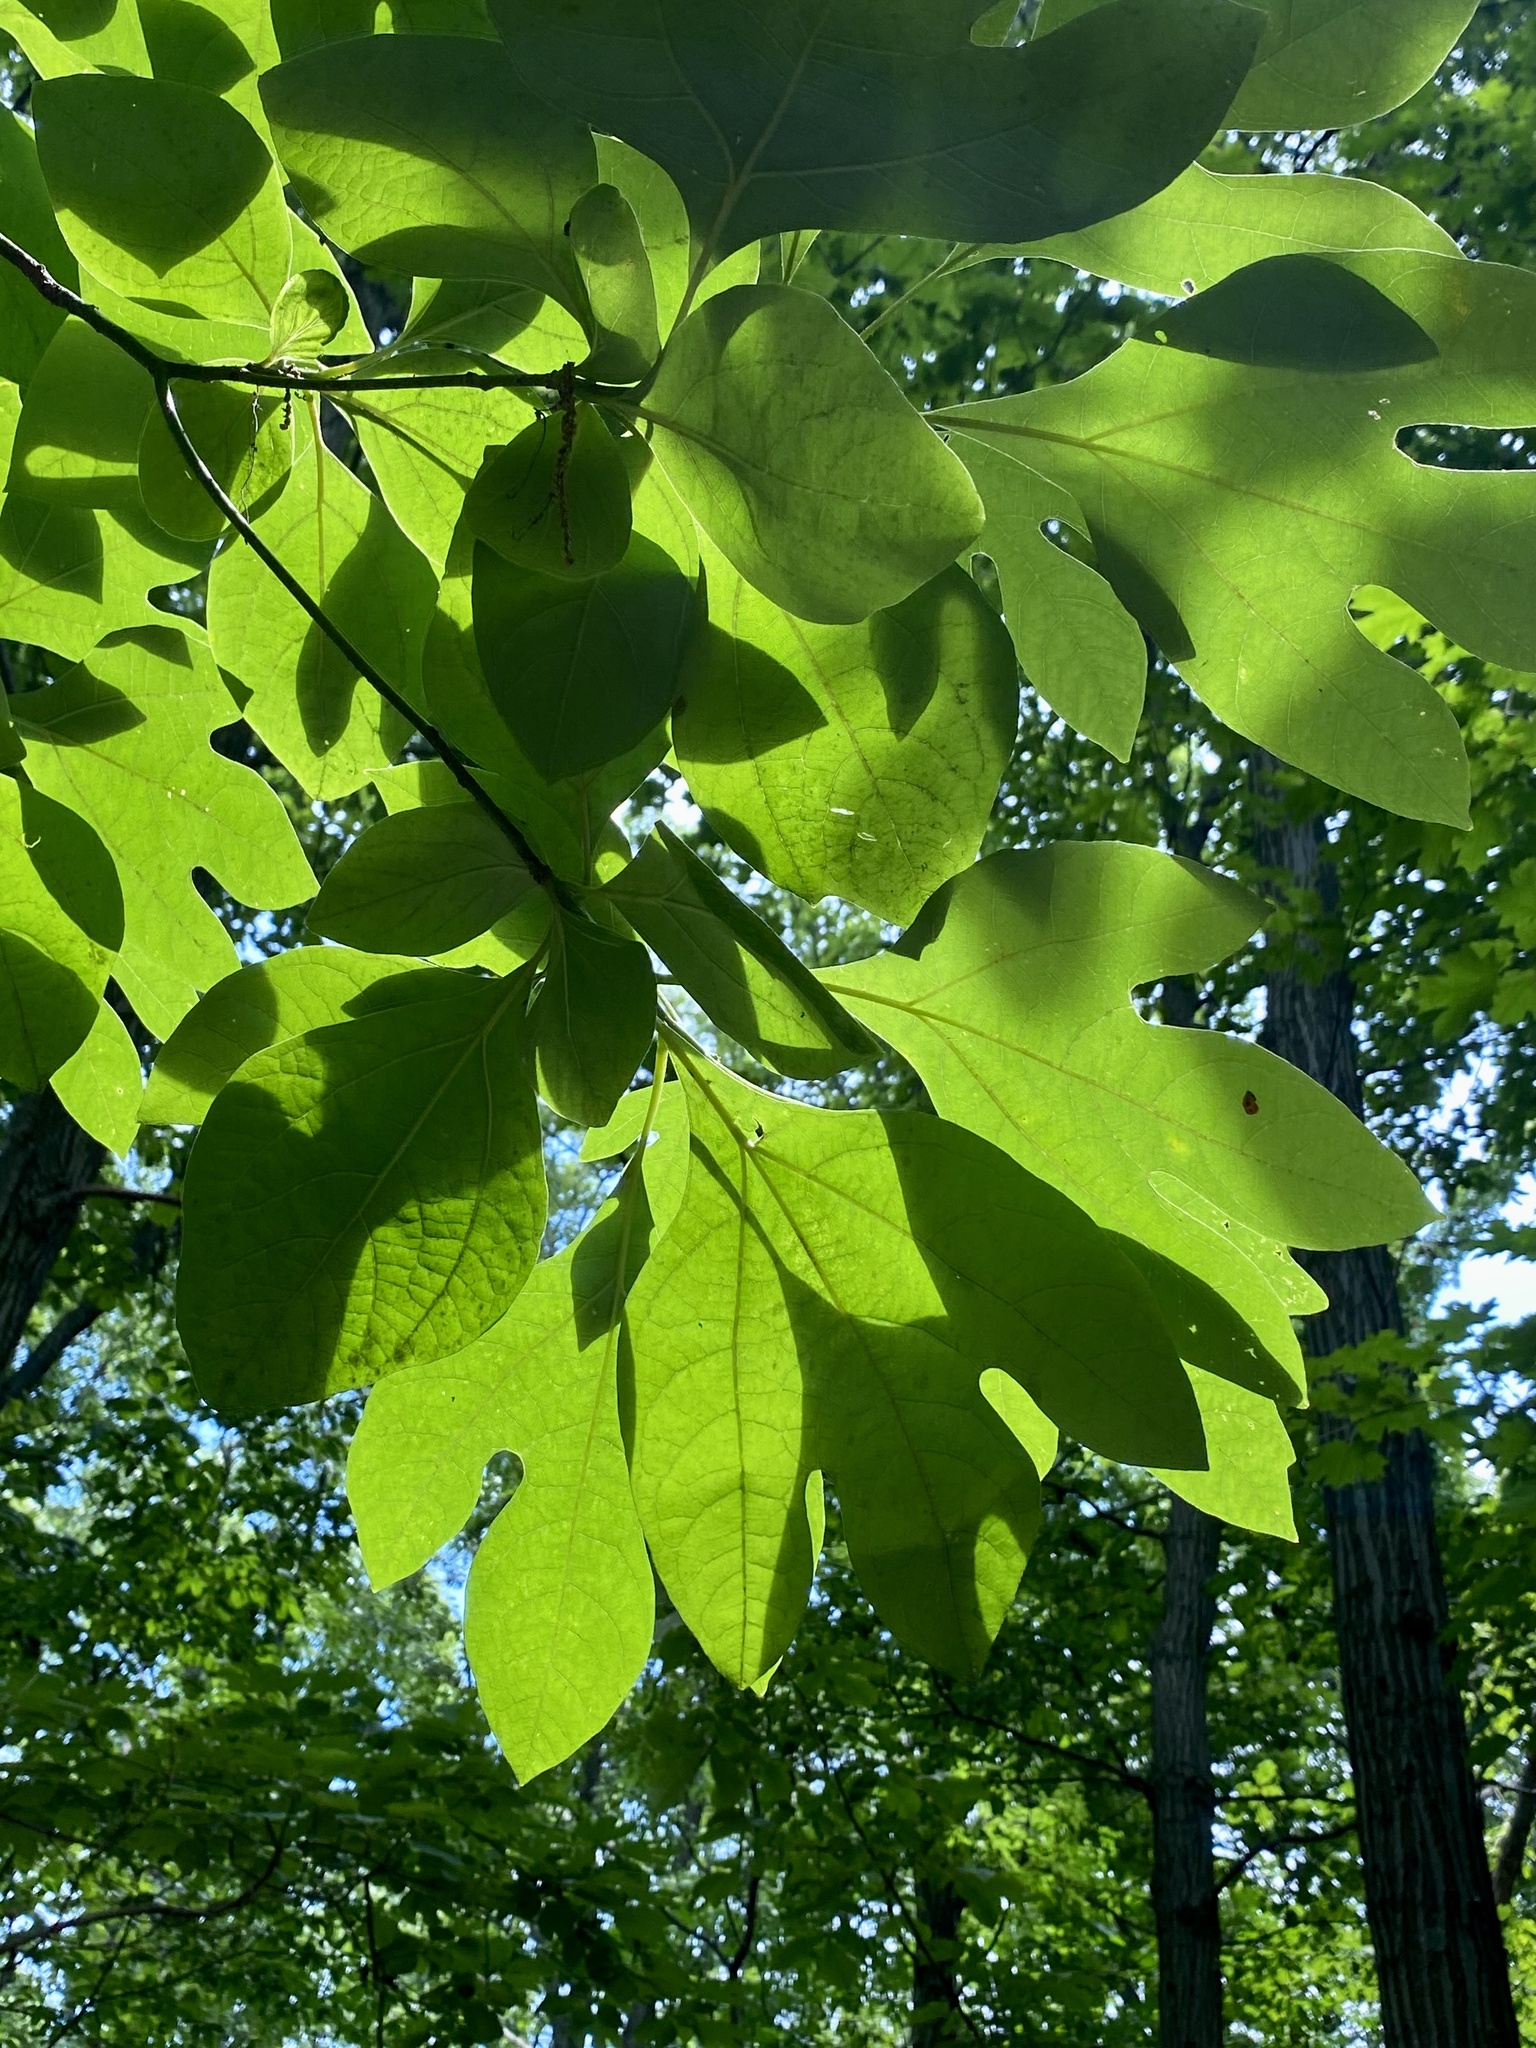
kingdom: Plantae
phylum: Tracheophyta
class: Magnoliopsida
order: Laurales
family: Lauraceae
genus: Sassafras
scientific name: Sassafras albidum
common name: Sassafras
